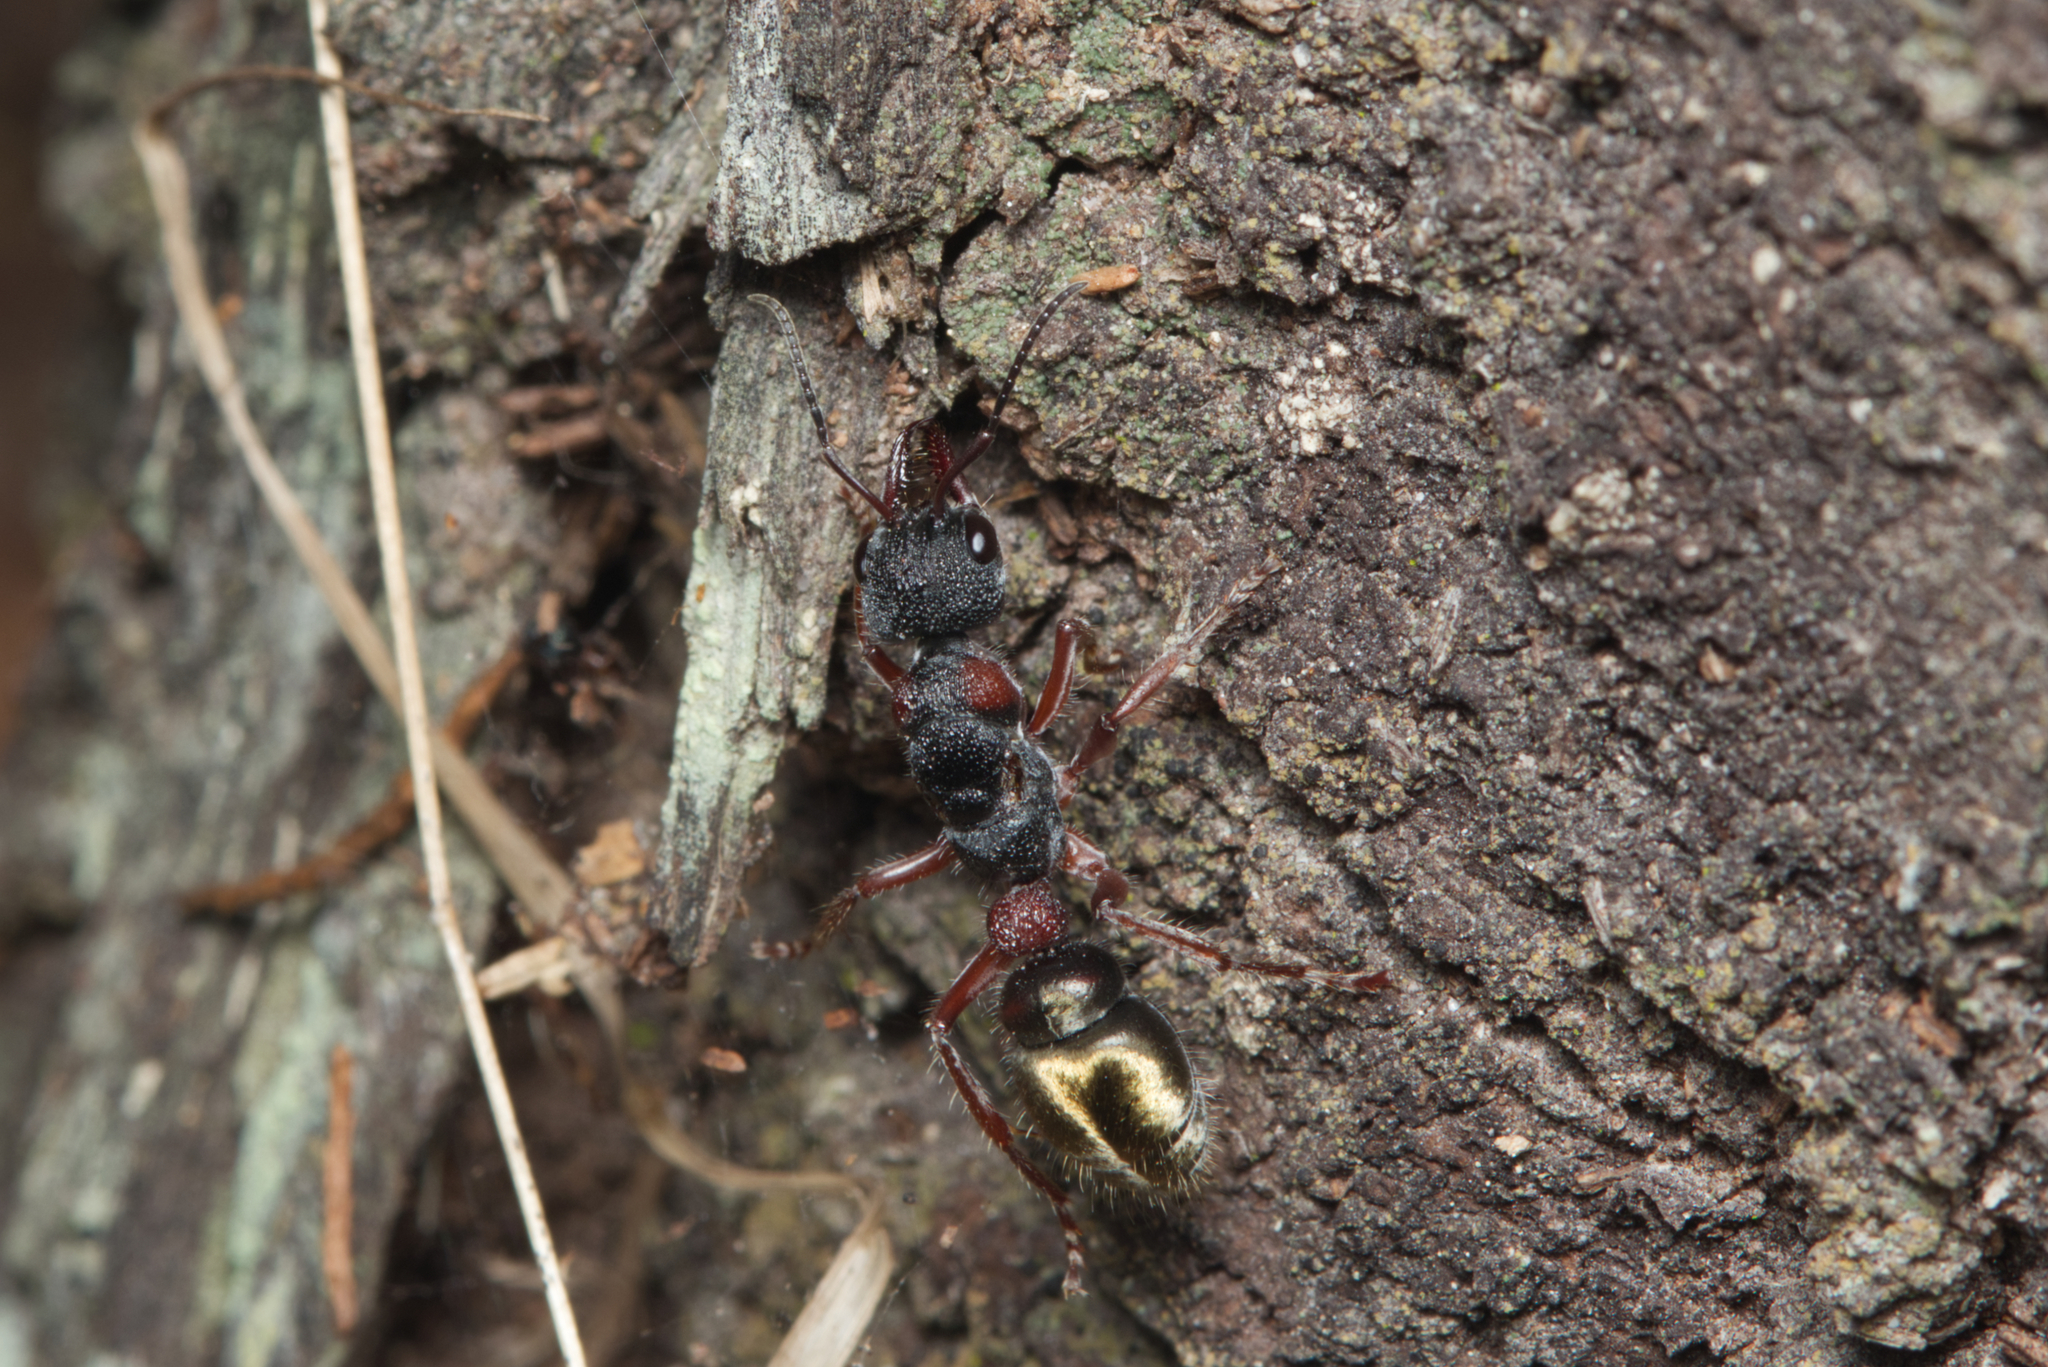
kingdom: Animalia
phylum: Arthropoda
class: Insecta
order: Hymenoptera
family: Formicidae
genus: Myrmecia
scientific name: Myrmecia chrysogaster
